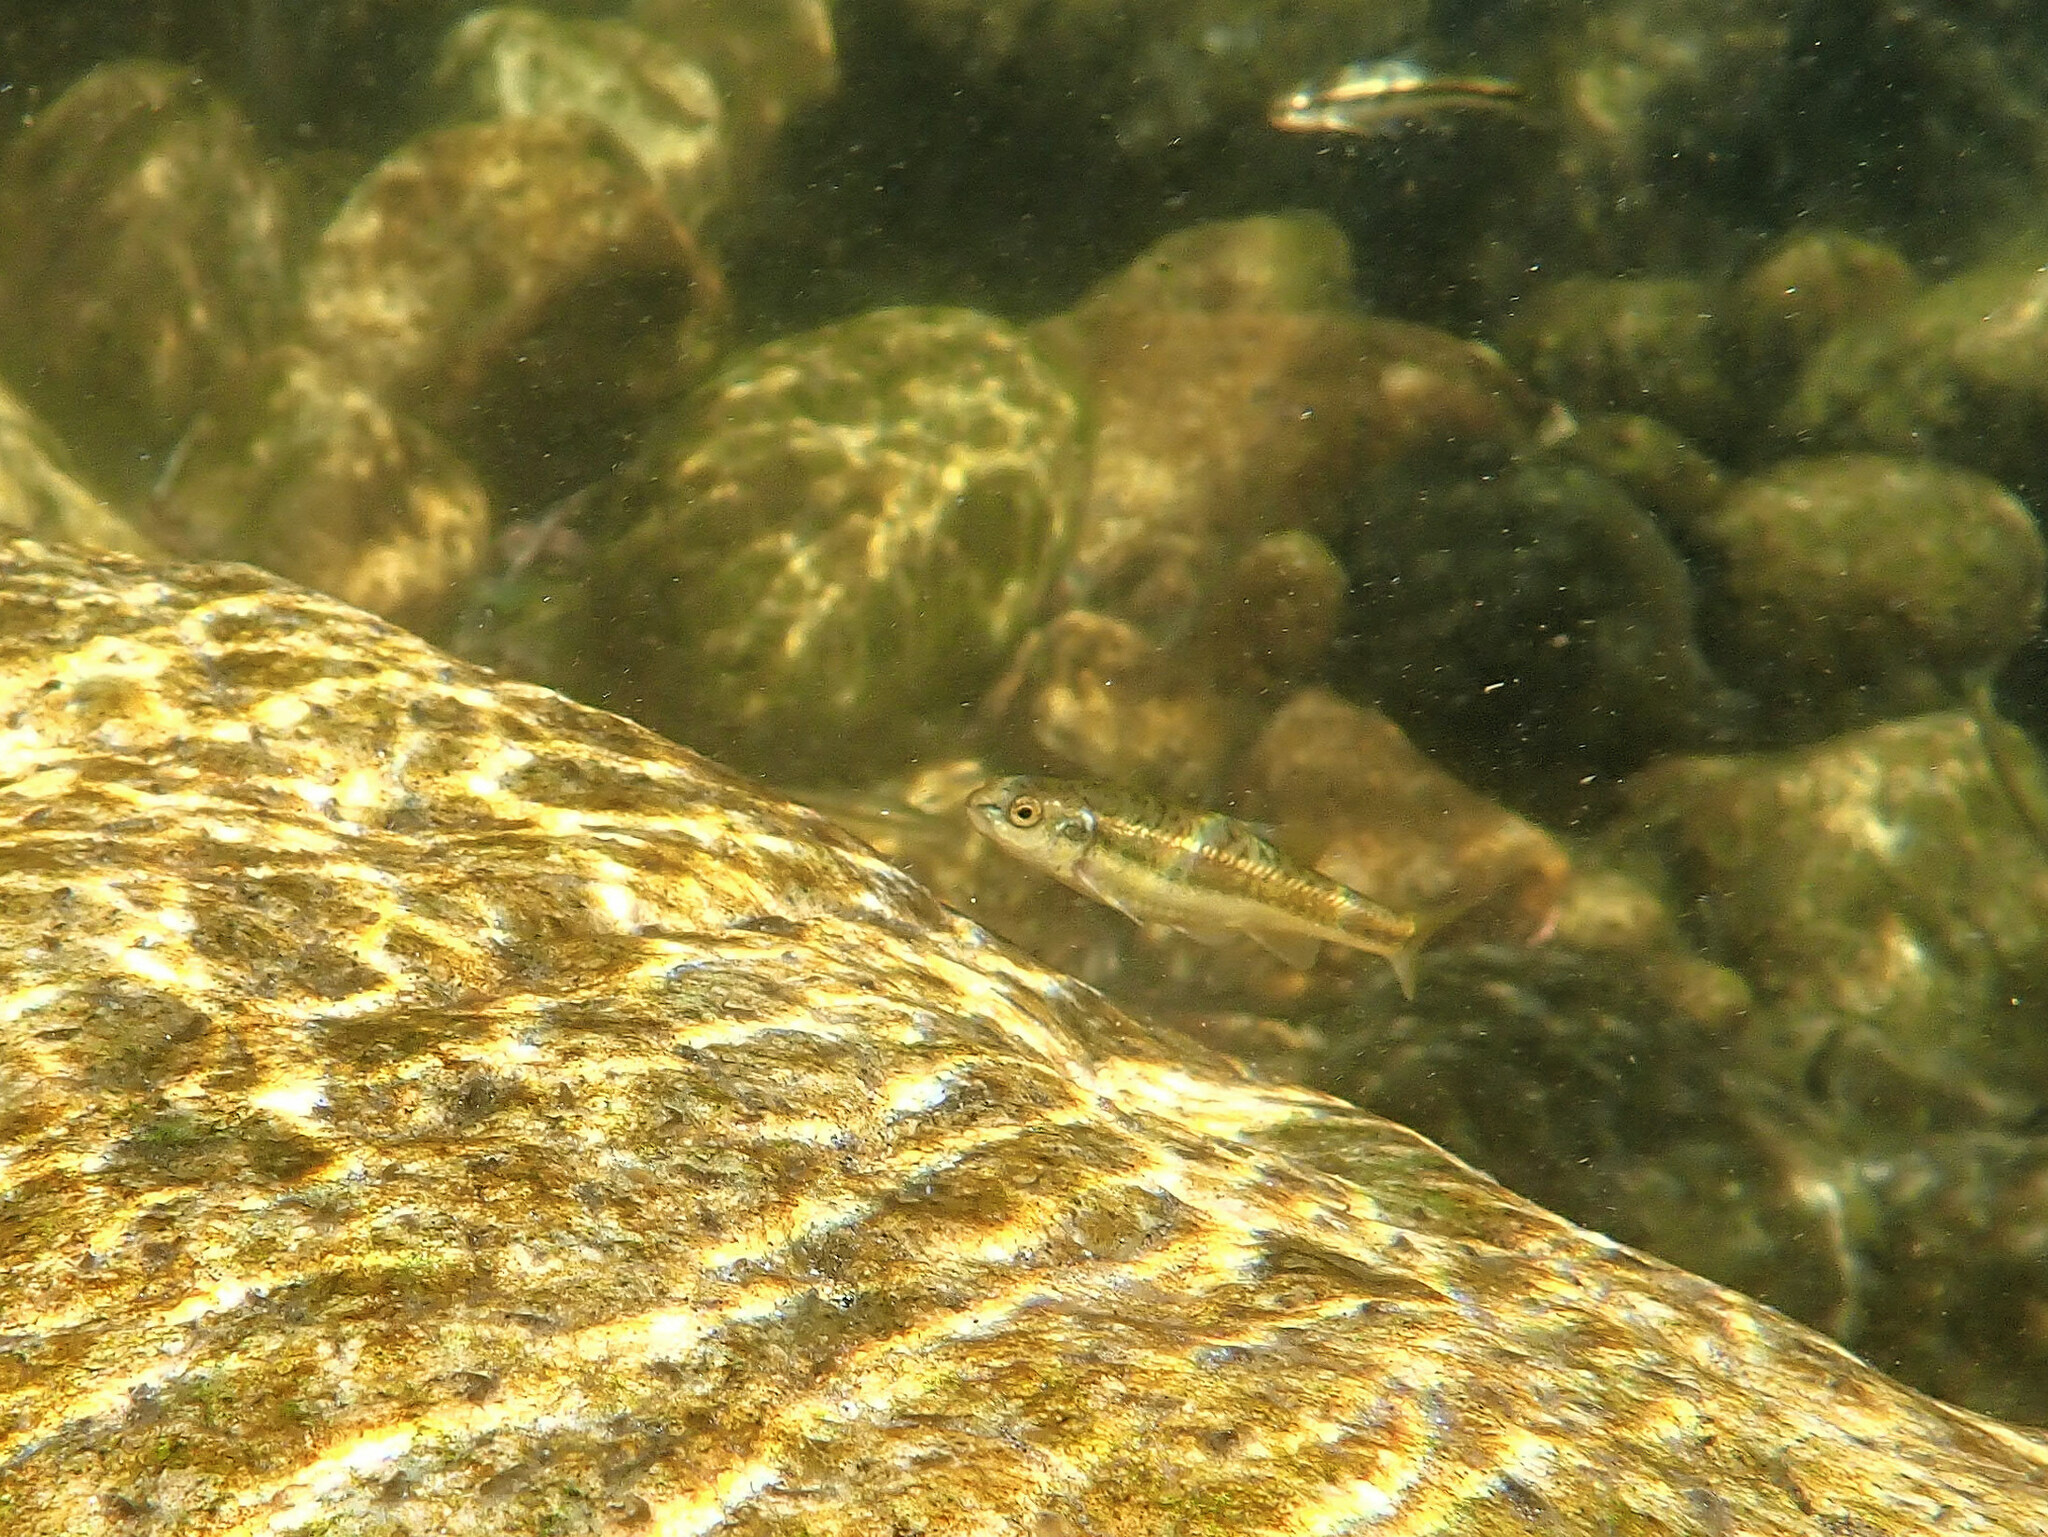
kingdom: Animalia
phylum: Chordata
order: Cypriniformes
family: Cyprinidae
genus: Phoxinus
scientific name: Phoxinus septimaniae
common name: Languedoc minnow
